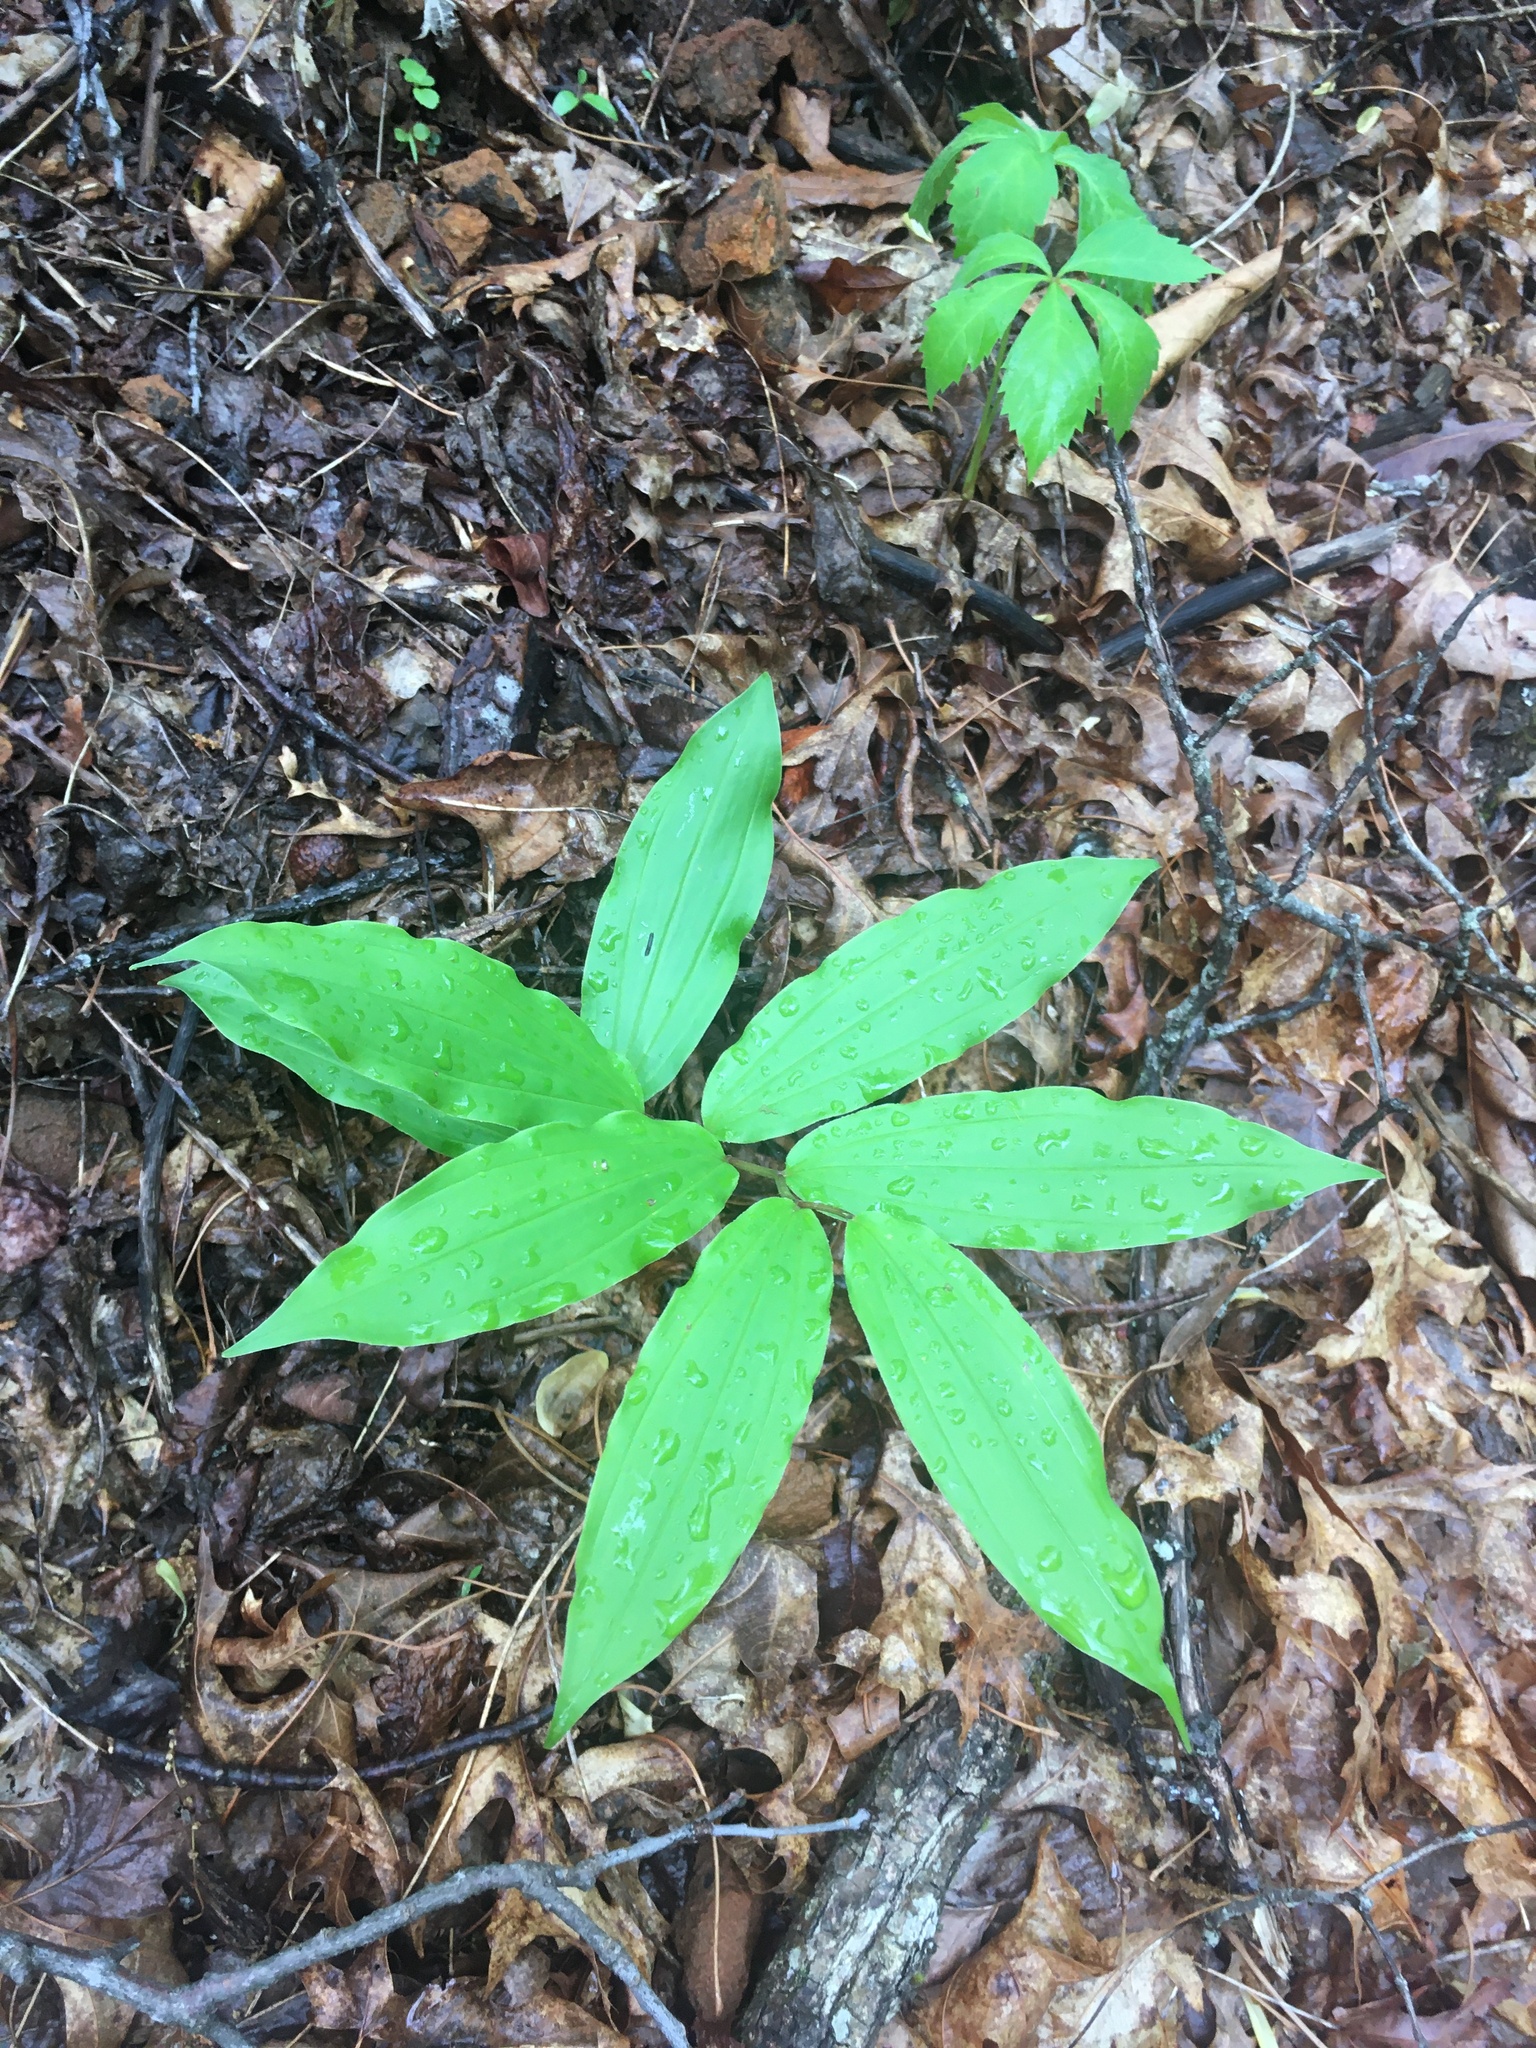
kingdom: Plantae
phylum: Tracheophyta
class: Liliopsida
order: Asparagales
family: Asparagaceae
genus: Maianthemum
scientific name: Maianthemum racemosum
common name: False spikenard
